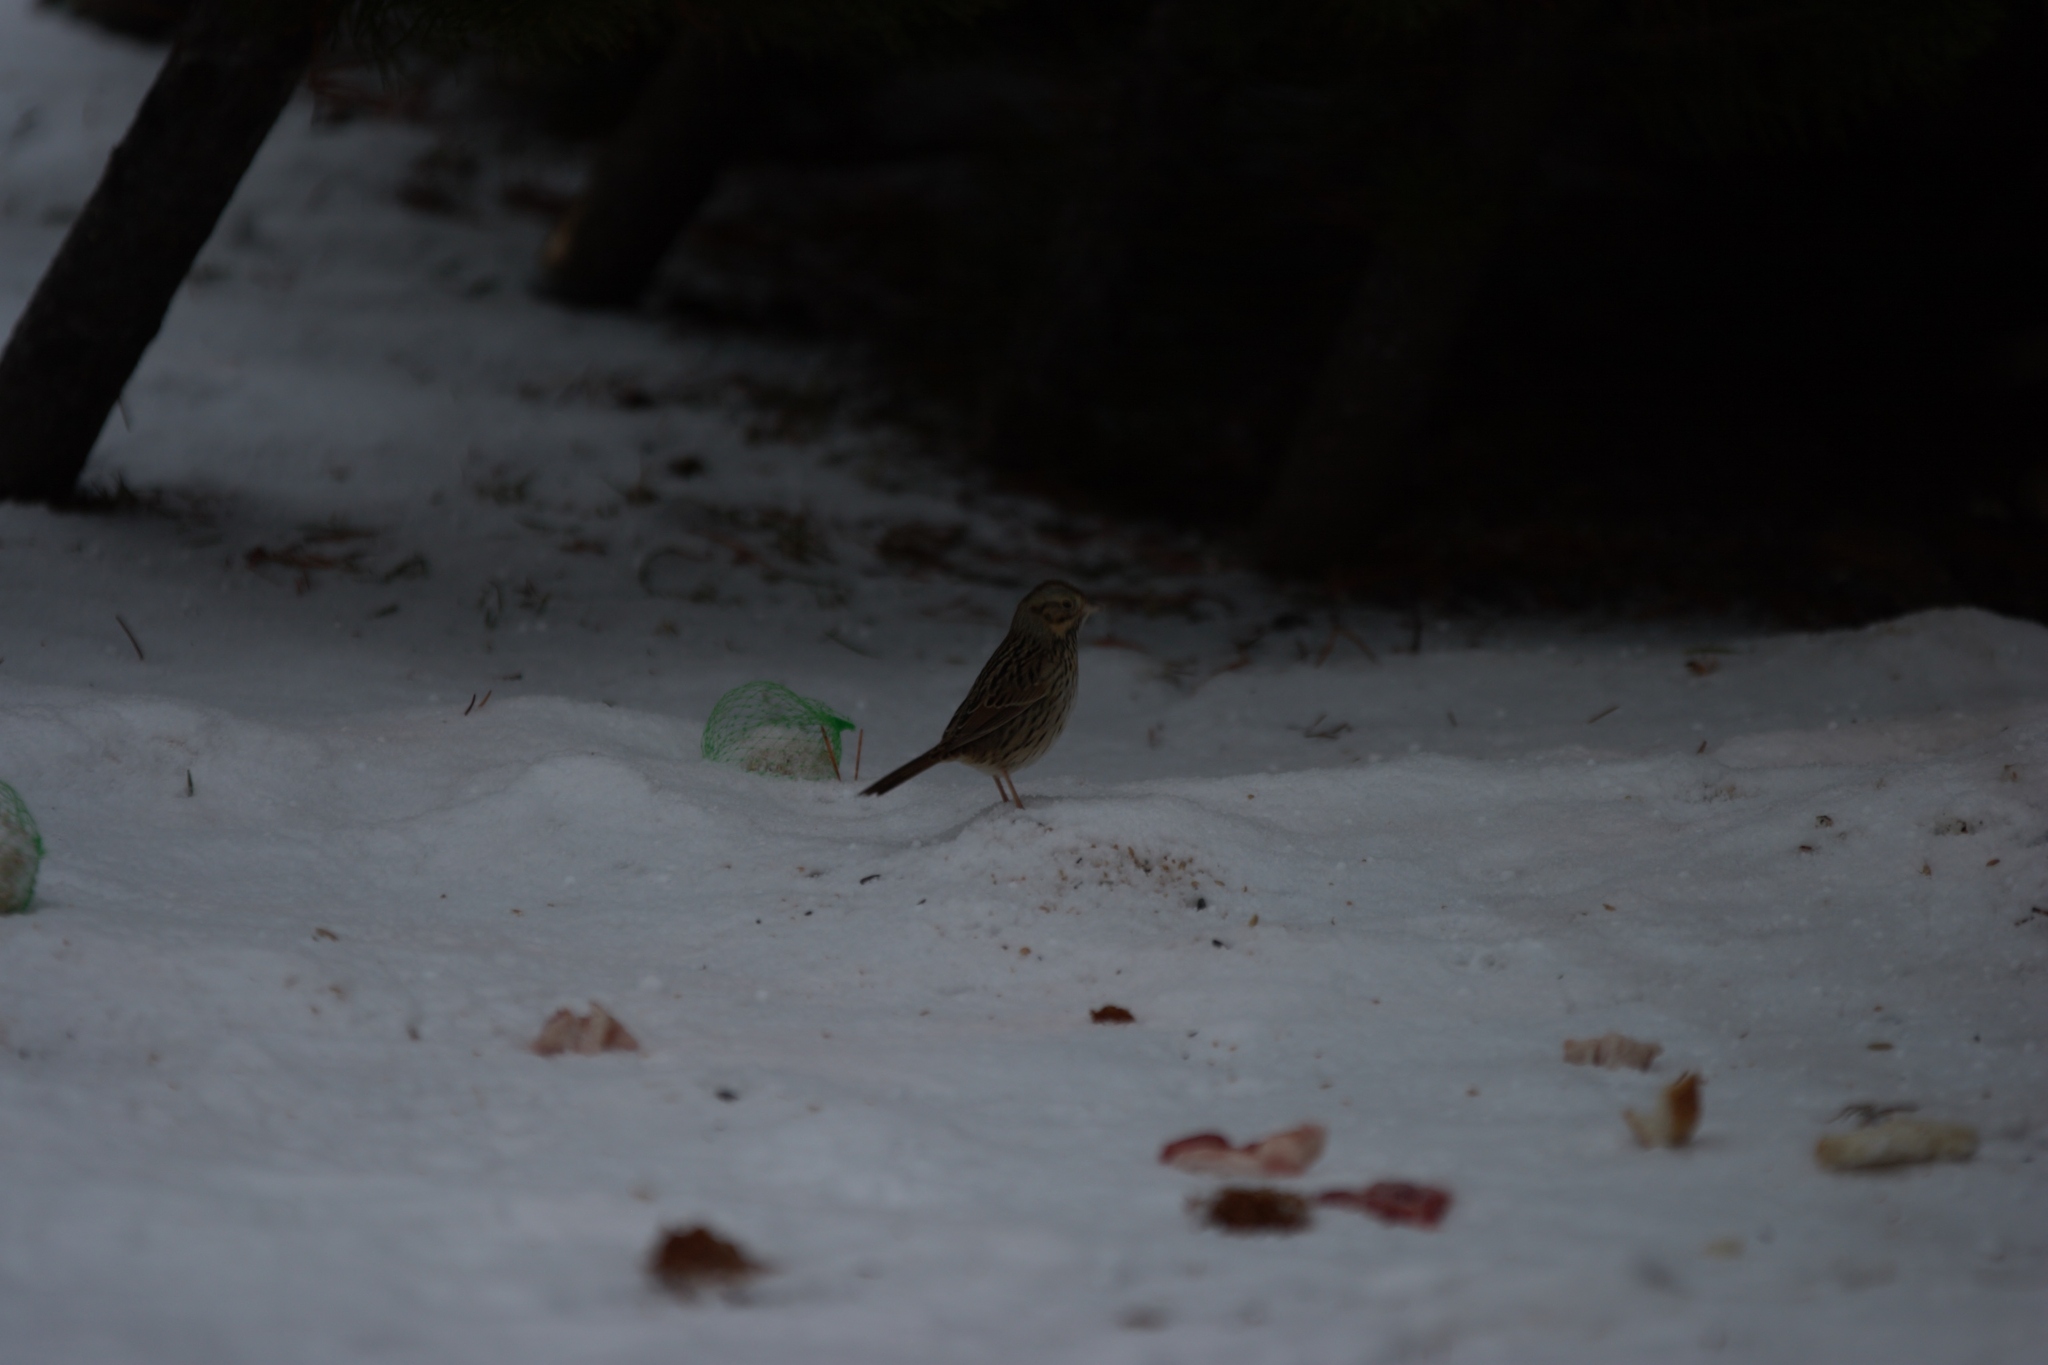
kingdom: Animalia
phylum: Chordata
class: Aves
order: Passeriformes
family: Passerellidae
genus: Melospiza
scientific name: Melospiza lincolnii
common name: Lincoln's sparrow
